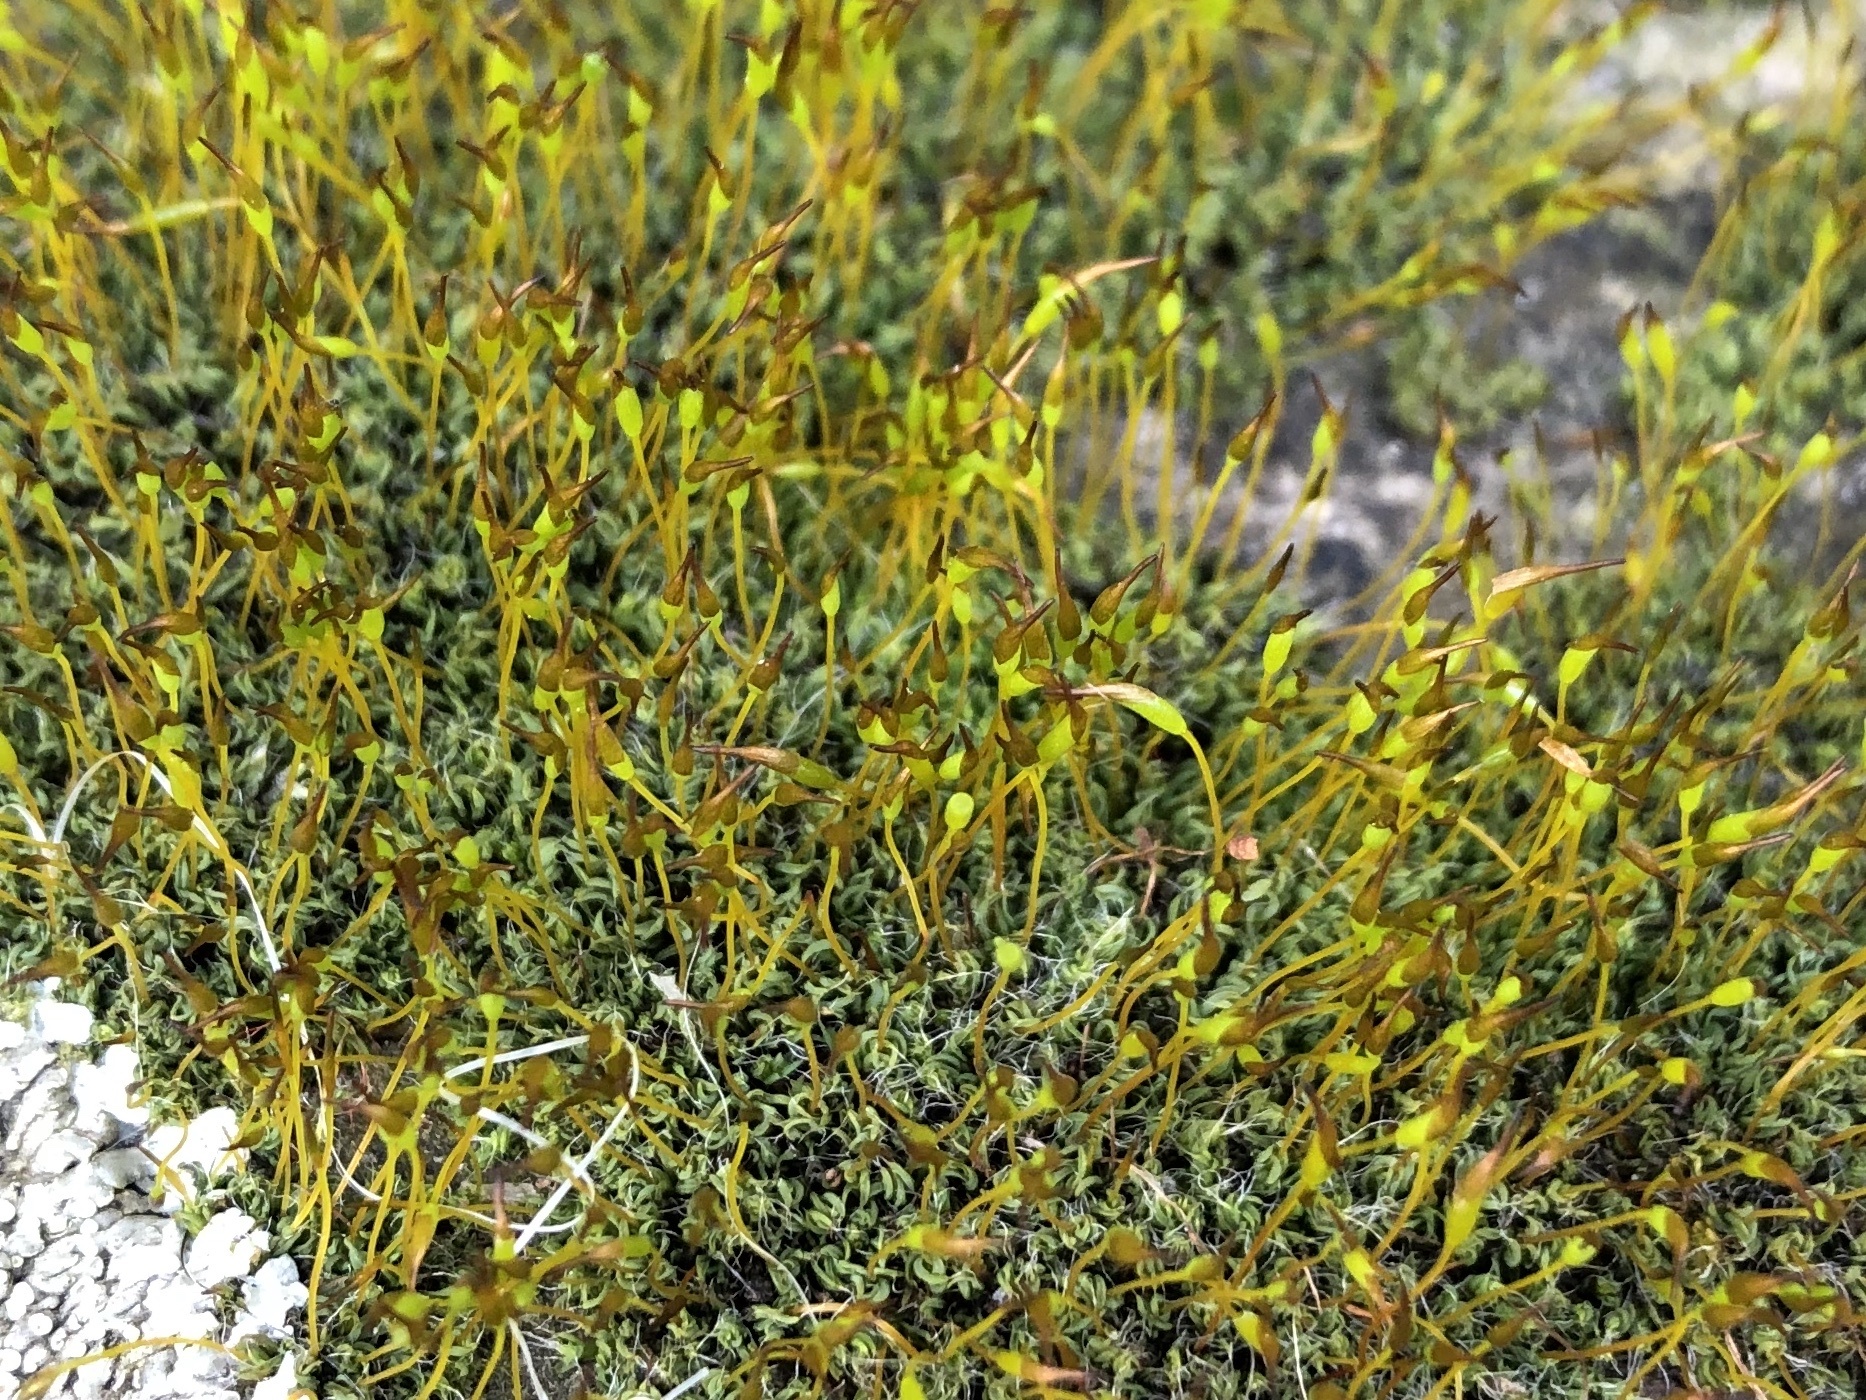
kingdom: Plantae
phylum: Bryophyta
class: Bryopsida
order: Pottiales
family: Pottiaceae
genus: Tortula
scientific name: Tortula muralis
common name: Wall screw-moss
